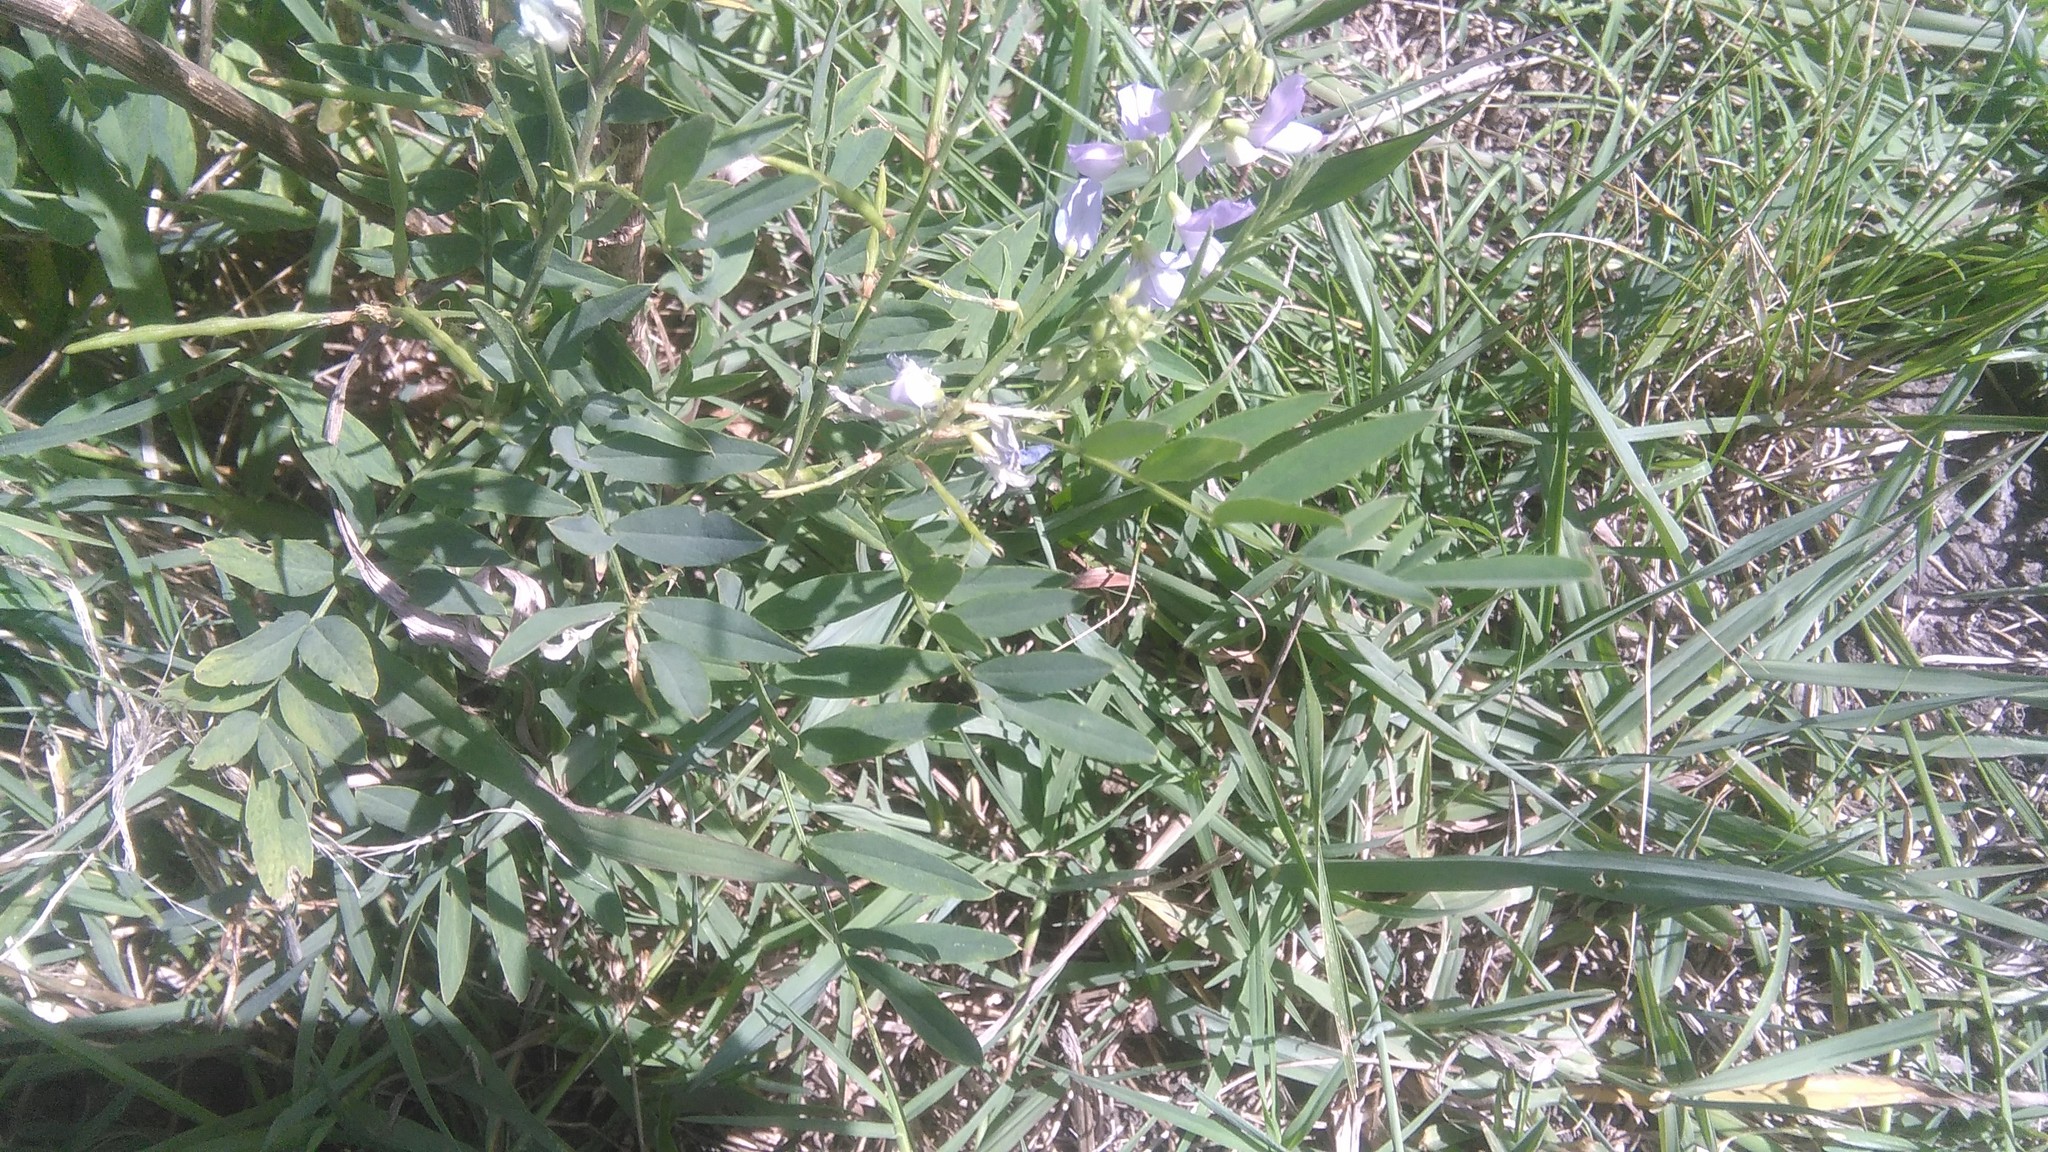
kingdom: Plantae
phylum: Tracheophyta
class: Magnoliopsida
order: Fabales
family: Fabaceae
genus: Galega
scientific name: Galega officinalis
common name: Goat's-rue
